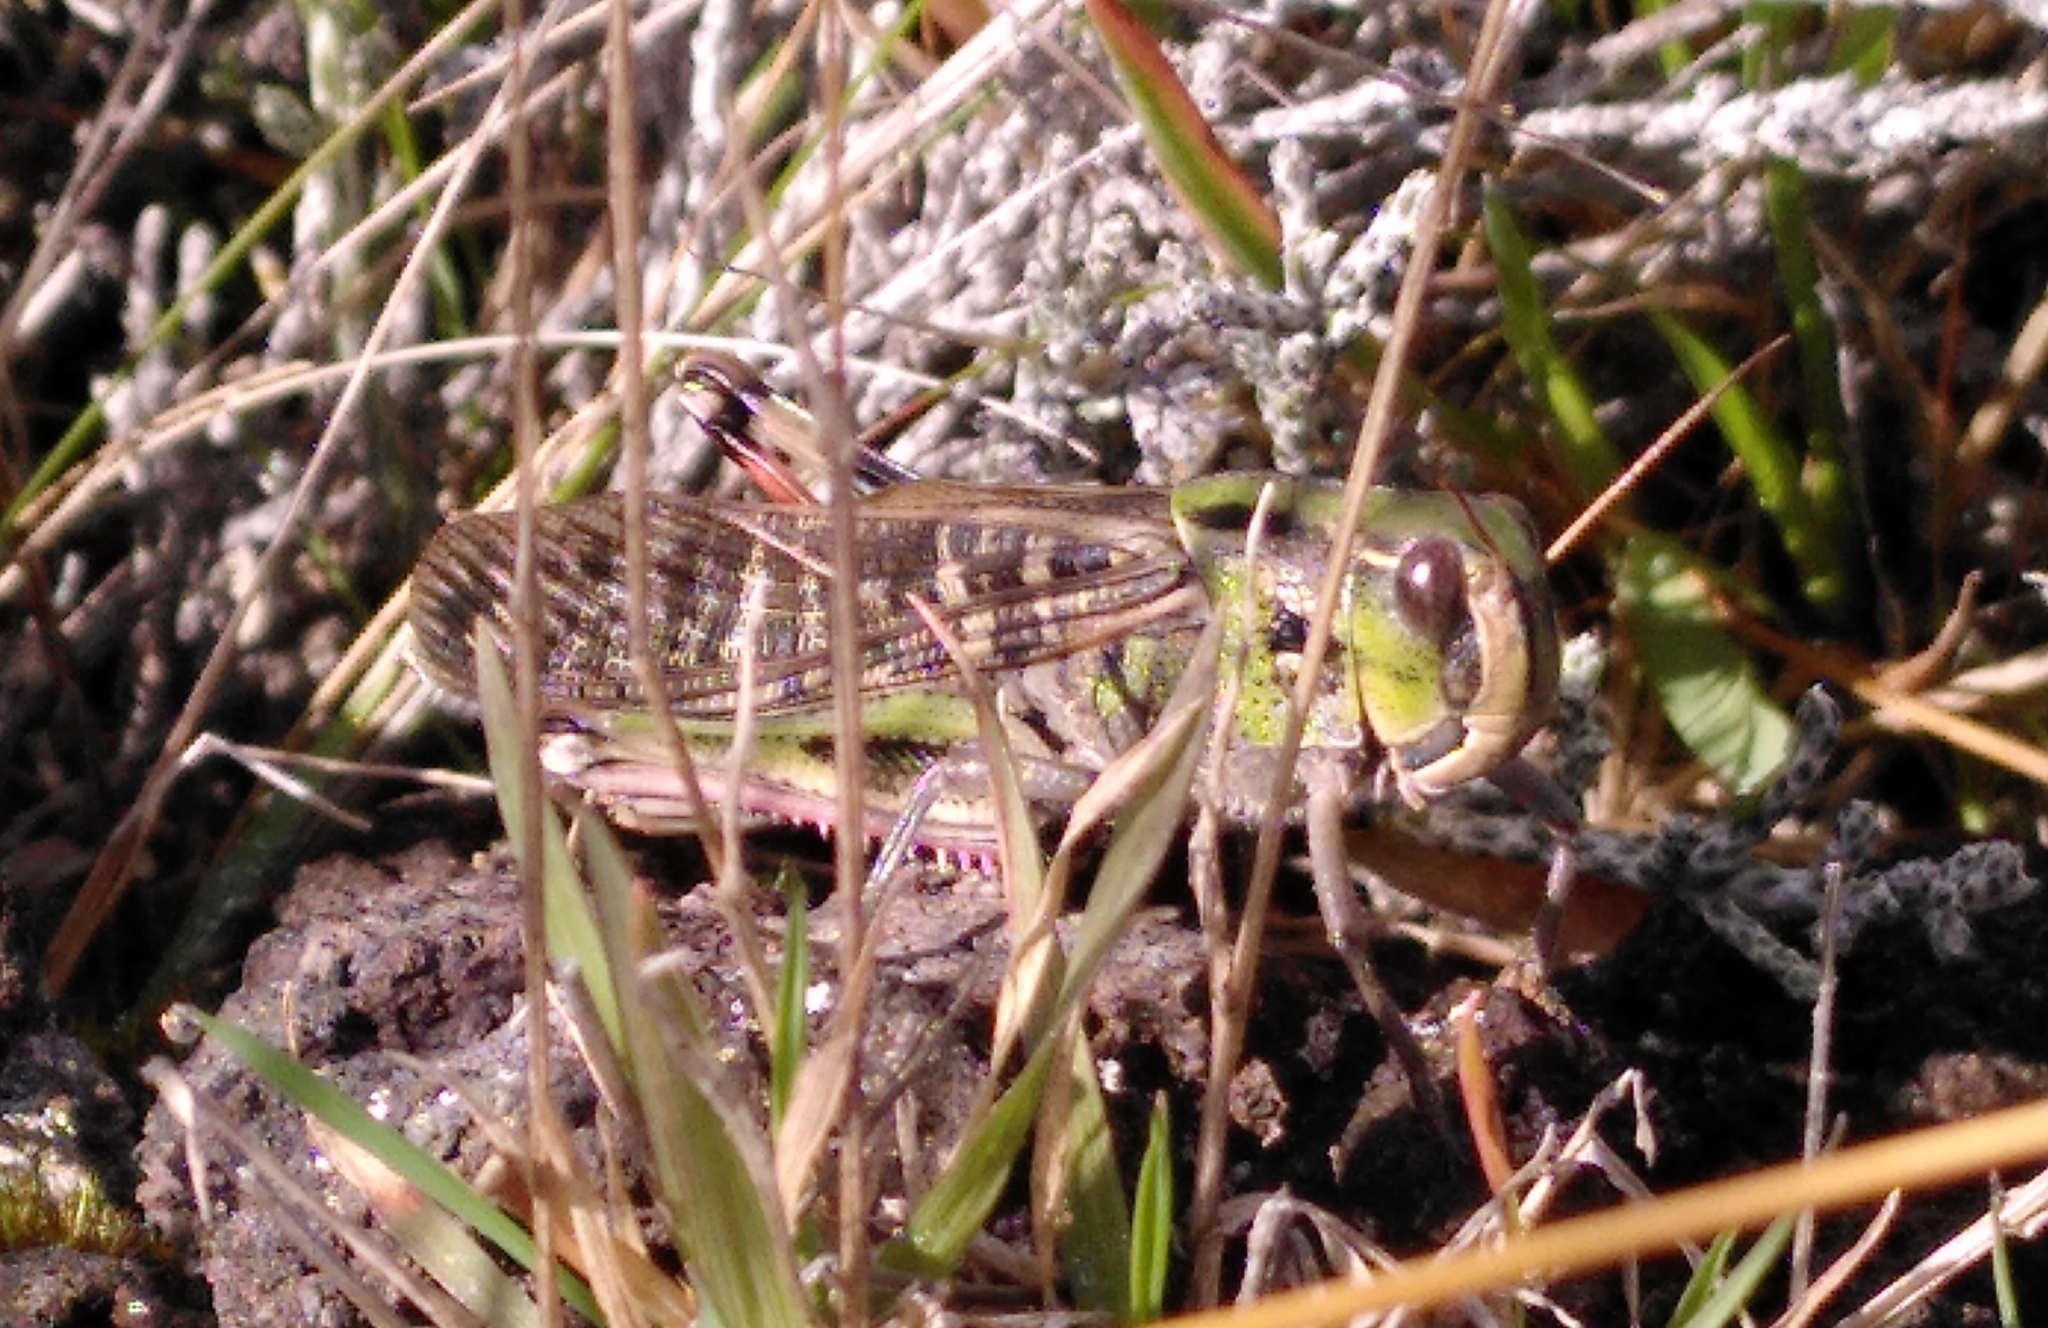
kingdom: Animalia
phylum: Arthropoda
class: Insecta
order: Orthoptera
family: Acrididae
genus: Locusta
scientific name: Locusta migratoria
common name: Migratory locust
